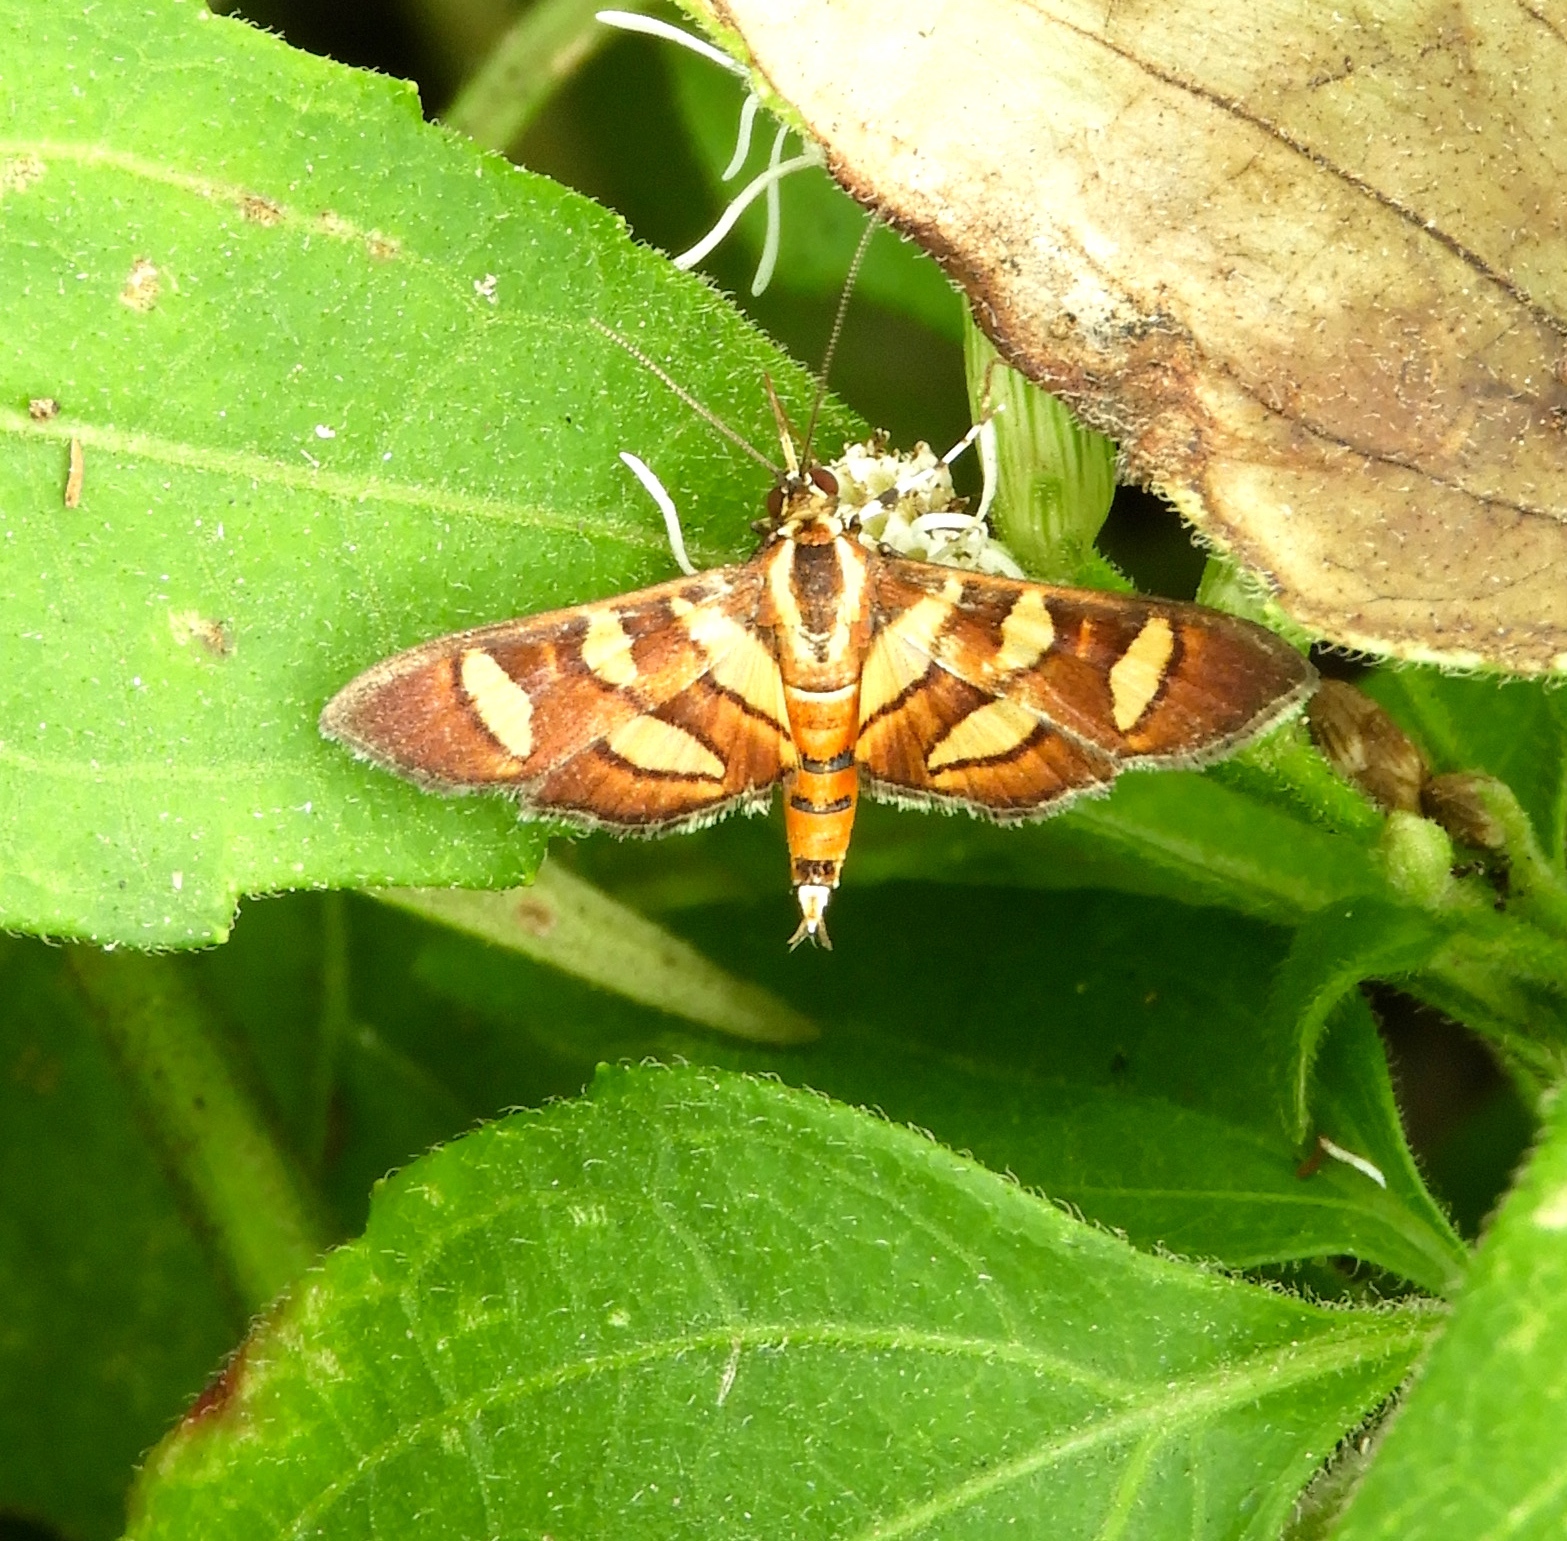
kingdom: Animalia
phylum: Arthropoda
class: Insecta
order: Lepidoptera
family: Crambidae
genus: Syngamia
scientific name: Syngamia florella
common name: Orange-spotted flower moth
